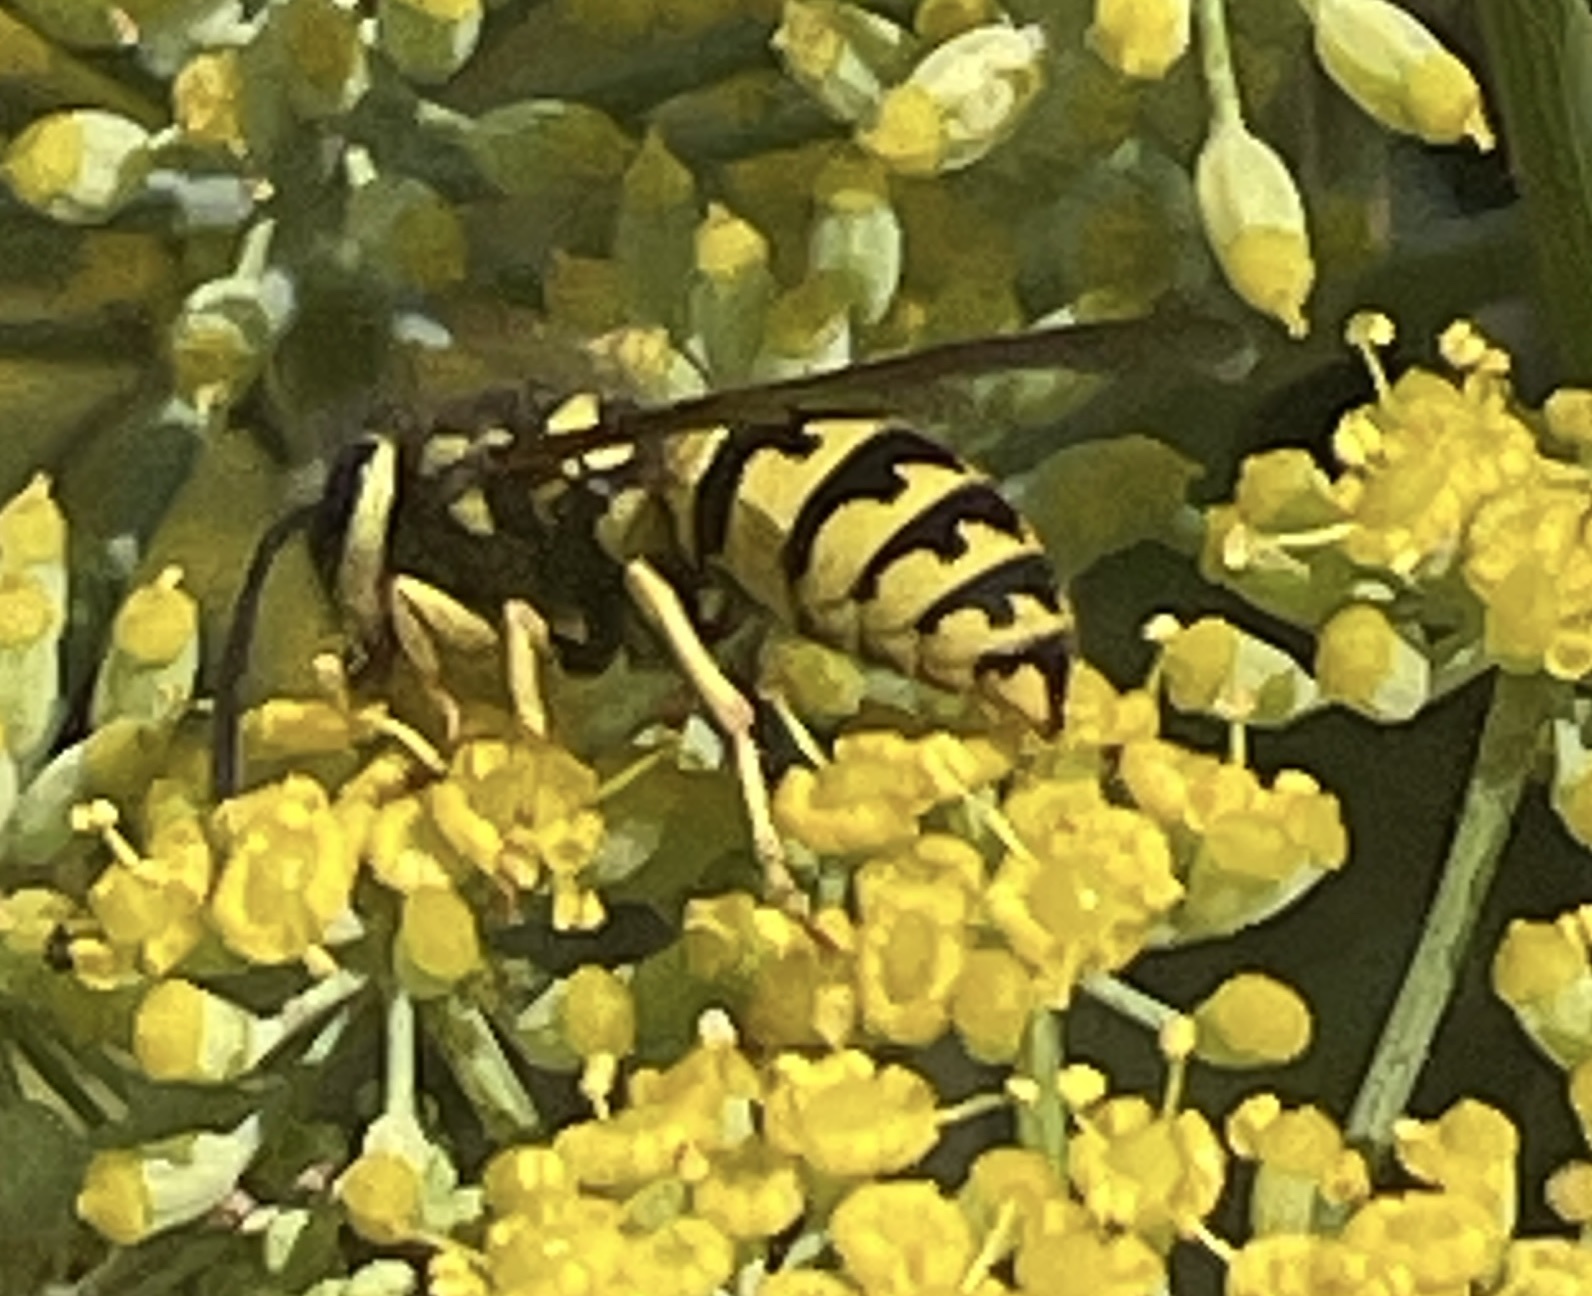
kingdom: Animalia
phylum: Arthropoda
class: Insecta
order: Hymenoptera
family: Vespidae
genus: Vespula
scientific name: Vespula pensylvanica
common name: Western yellowjacket
